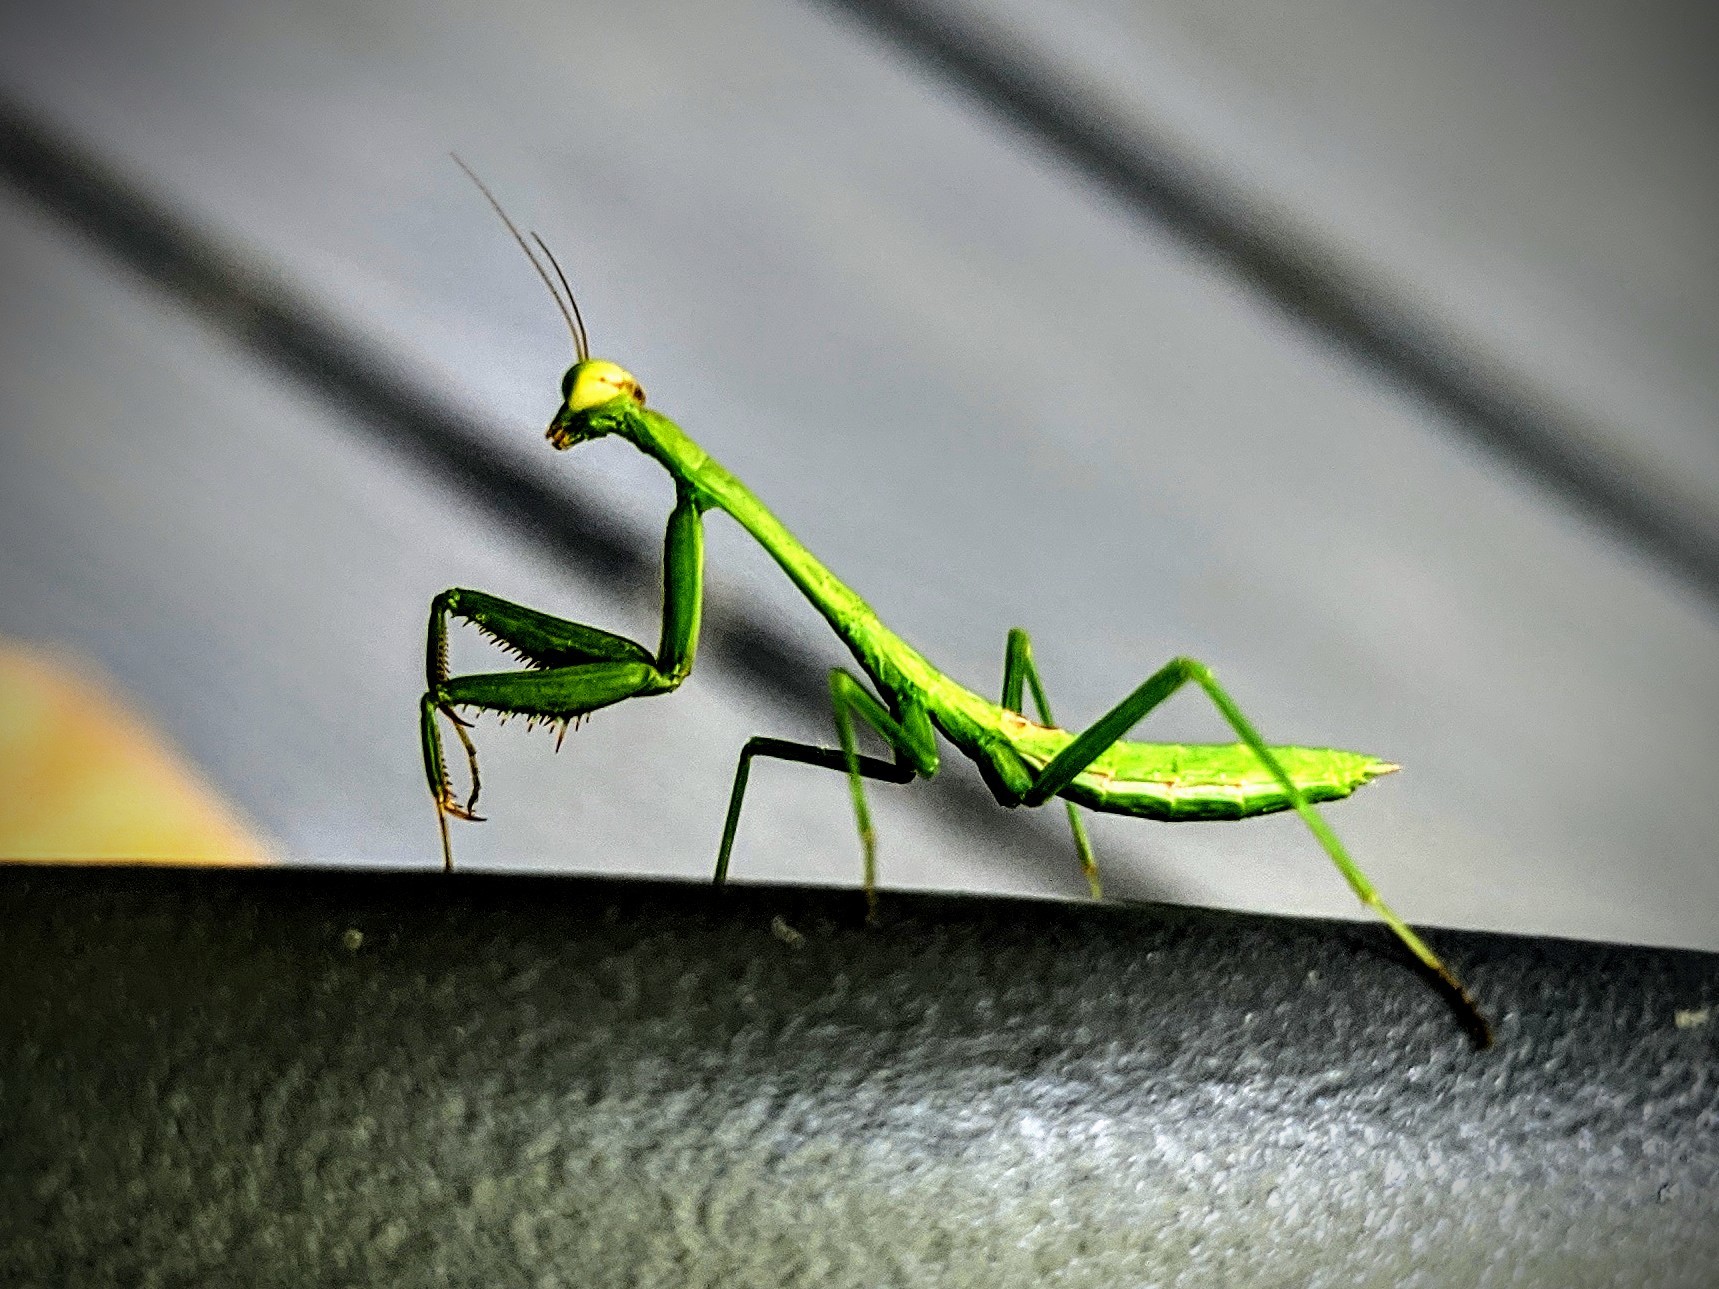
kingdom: Animalia
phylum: Arthropoda
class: Insecta
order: Mantodea
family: Mantidae
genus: Stagmomantis
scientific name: Stagmomantis carolina
